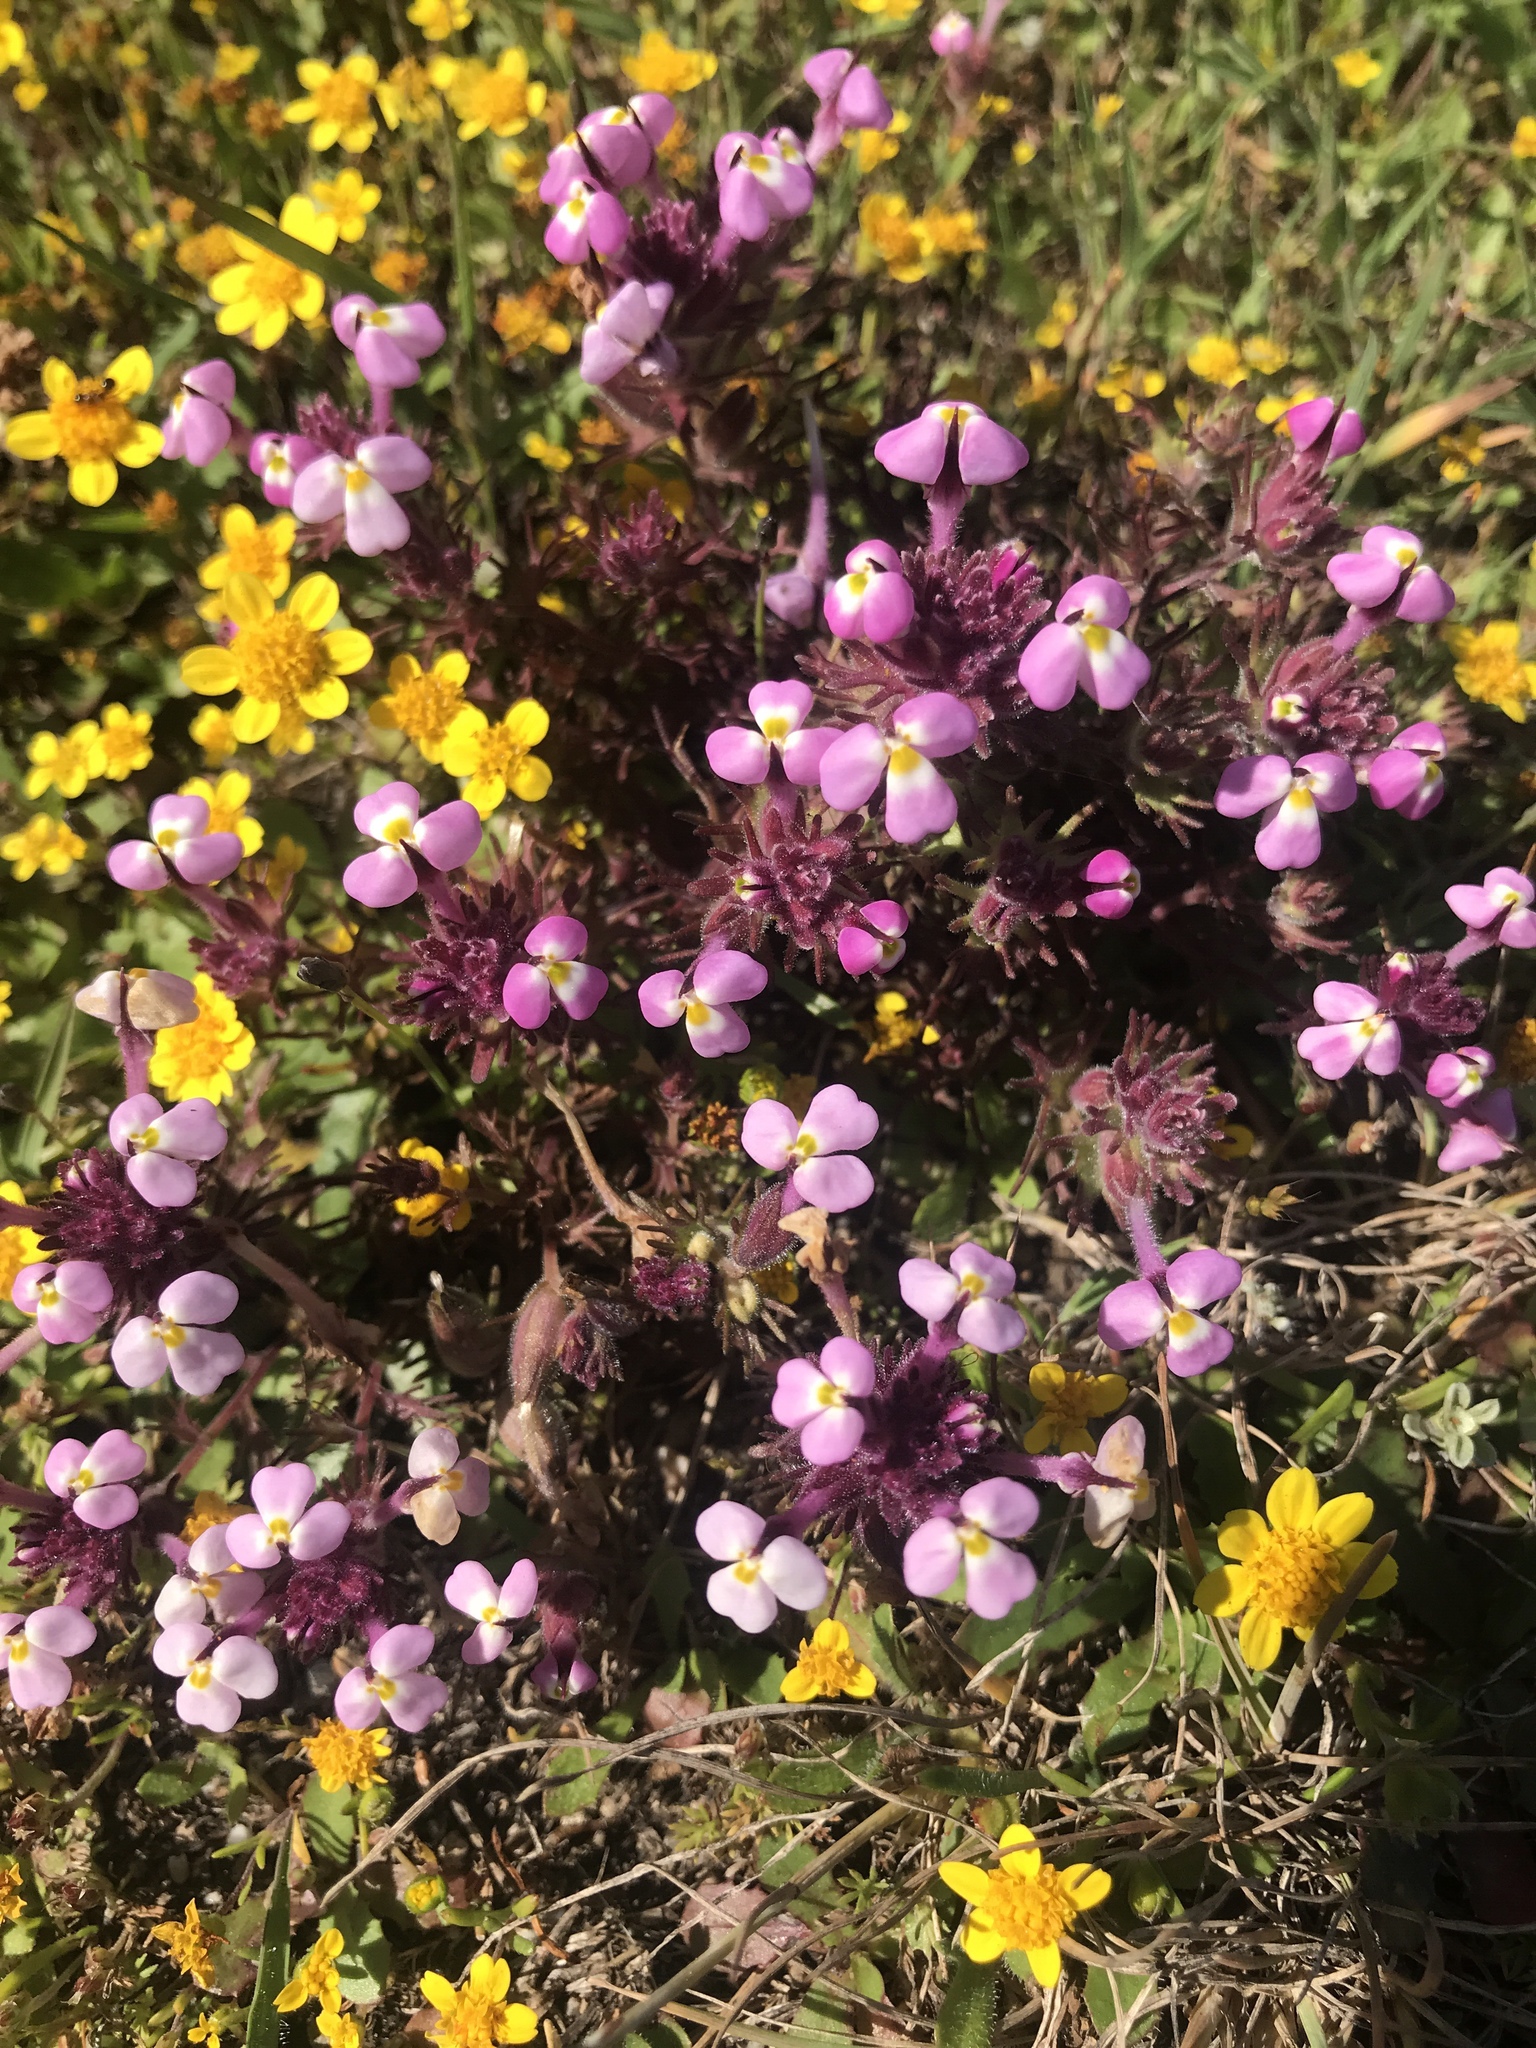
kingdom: Plantae
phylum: Tracheophyta
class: Magnoliopsida
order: Lamiales
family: Orobanchaceae
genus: Triphysaria
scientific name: Triphysaria eriantha
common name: Johnny-tuck
